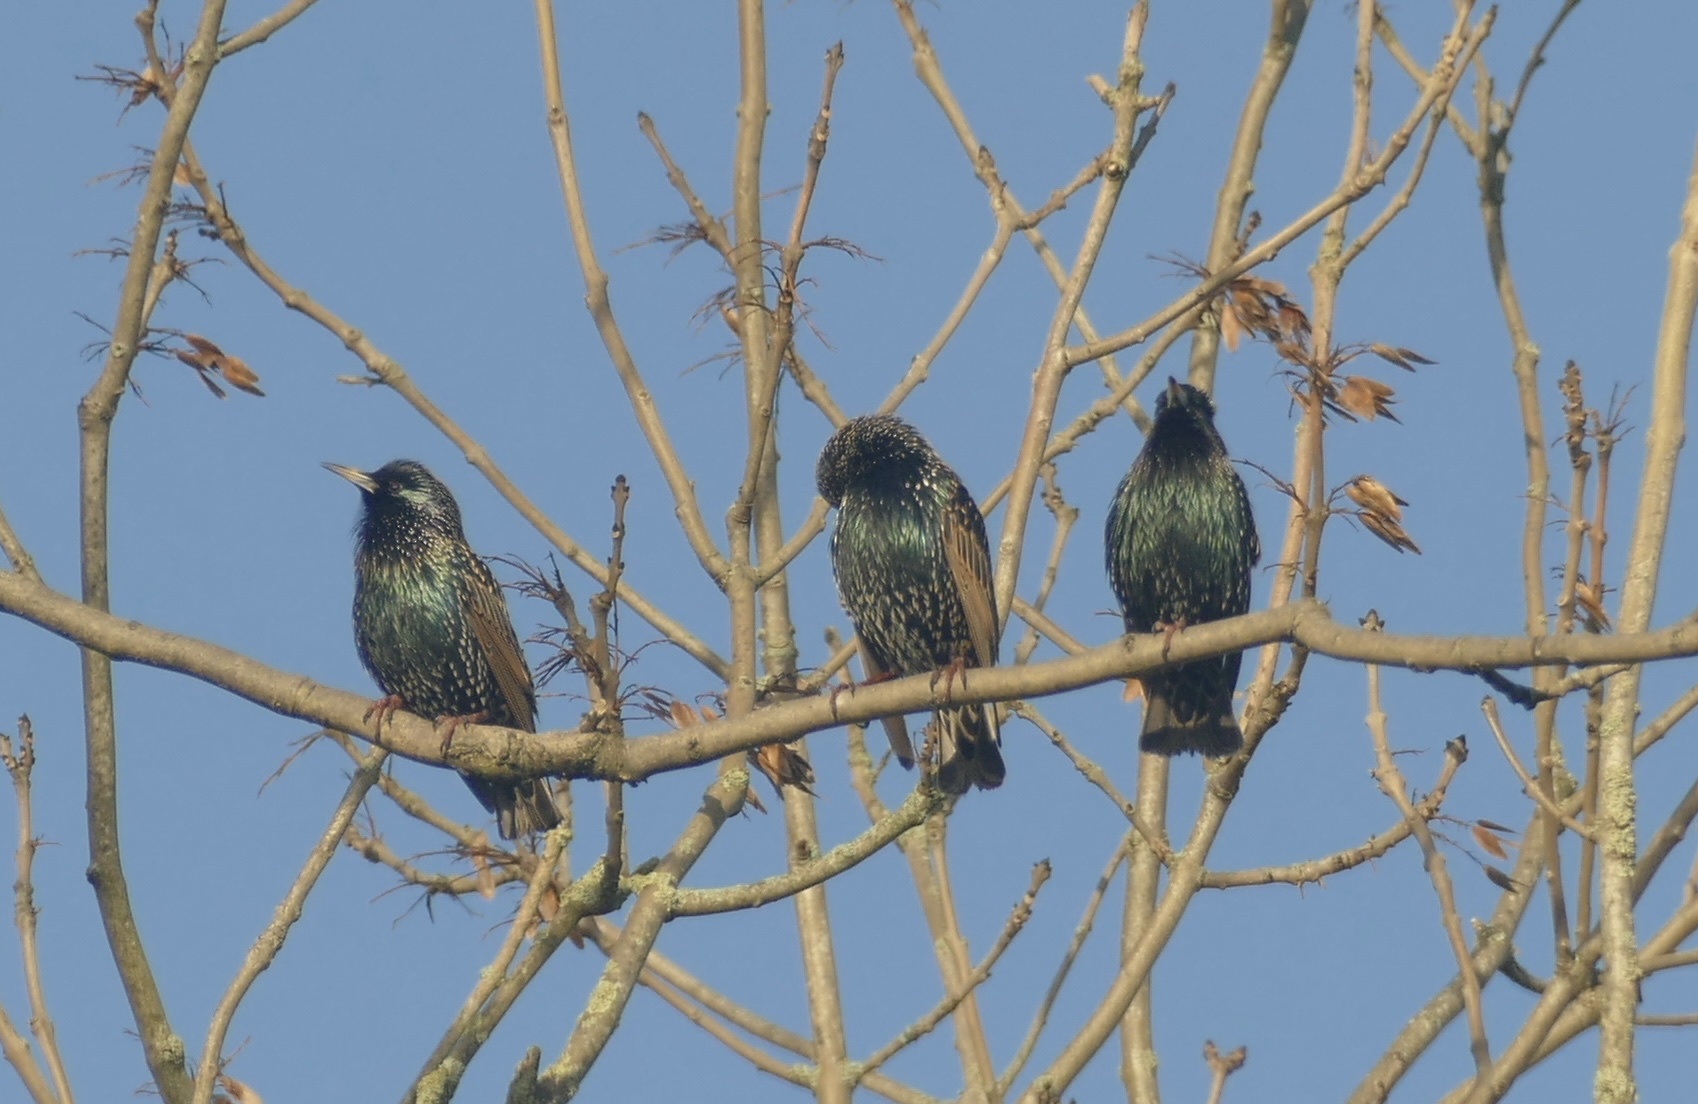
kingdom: Animalia
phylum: Chordata
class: Aves
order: Passeriformes
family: Sturnidae
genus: Sturnus
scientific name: Sturnus vulgaris
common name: Common starling
